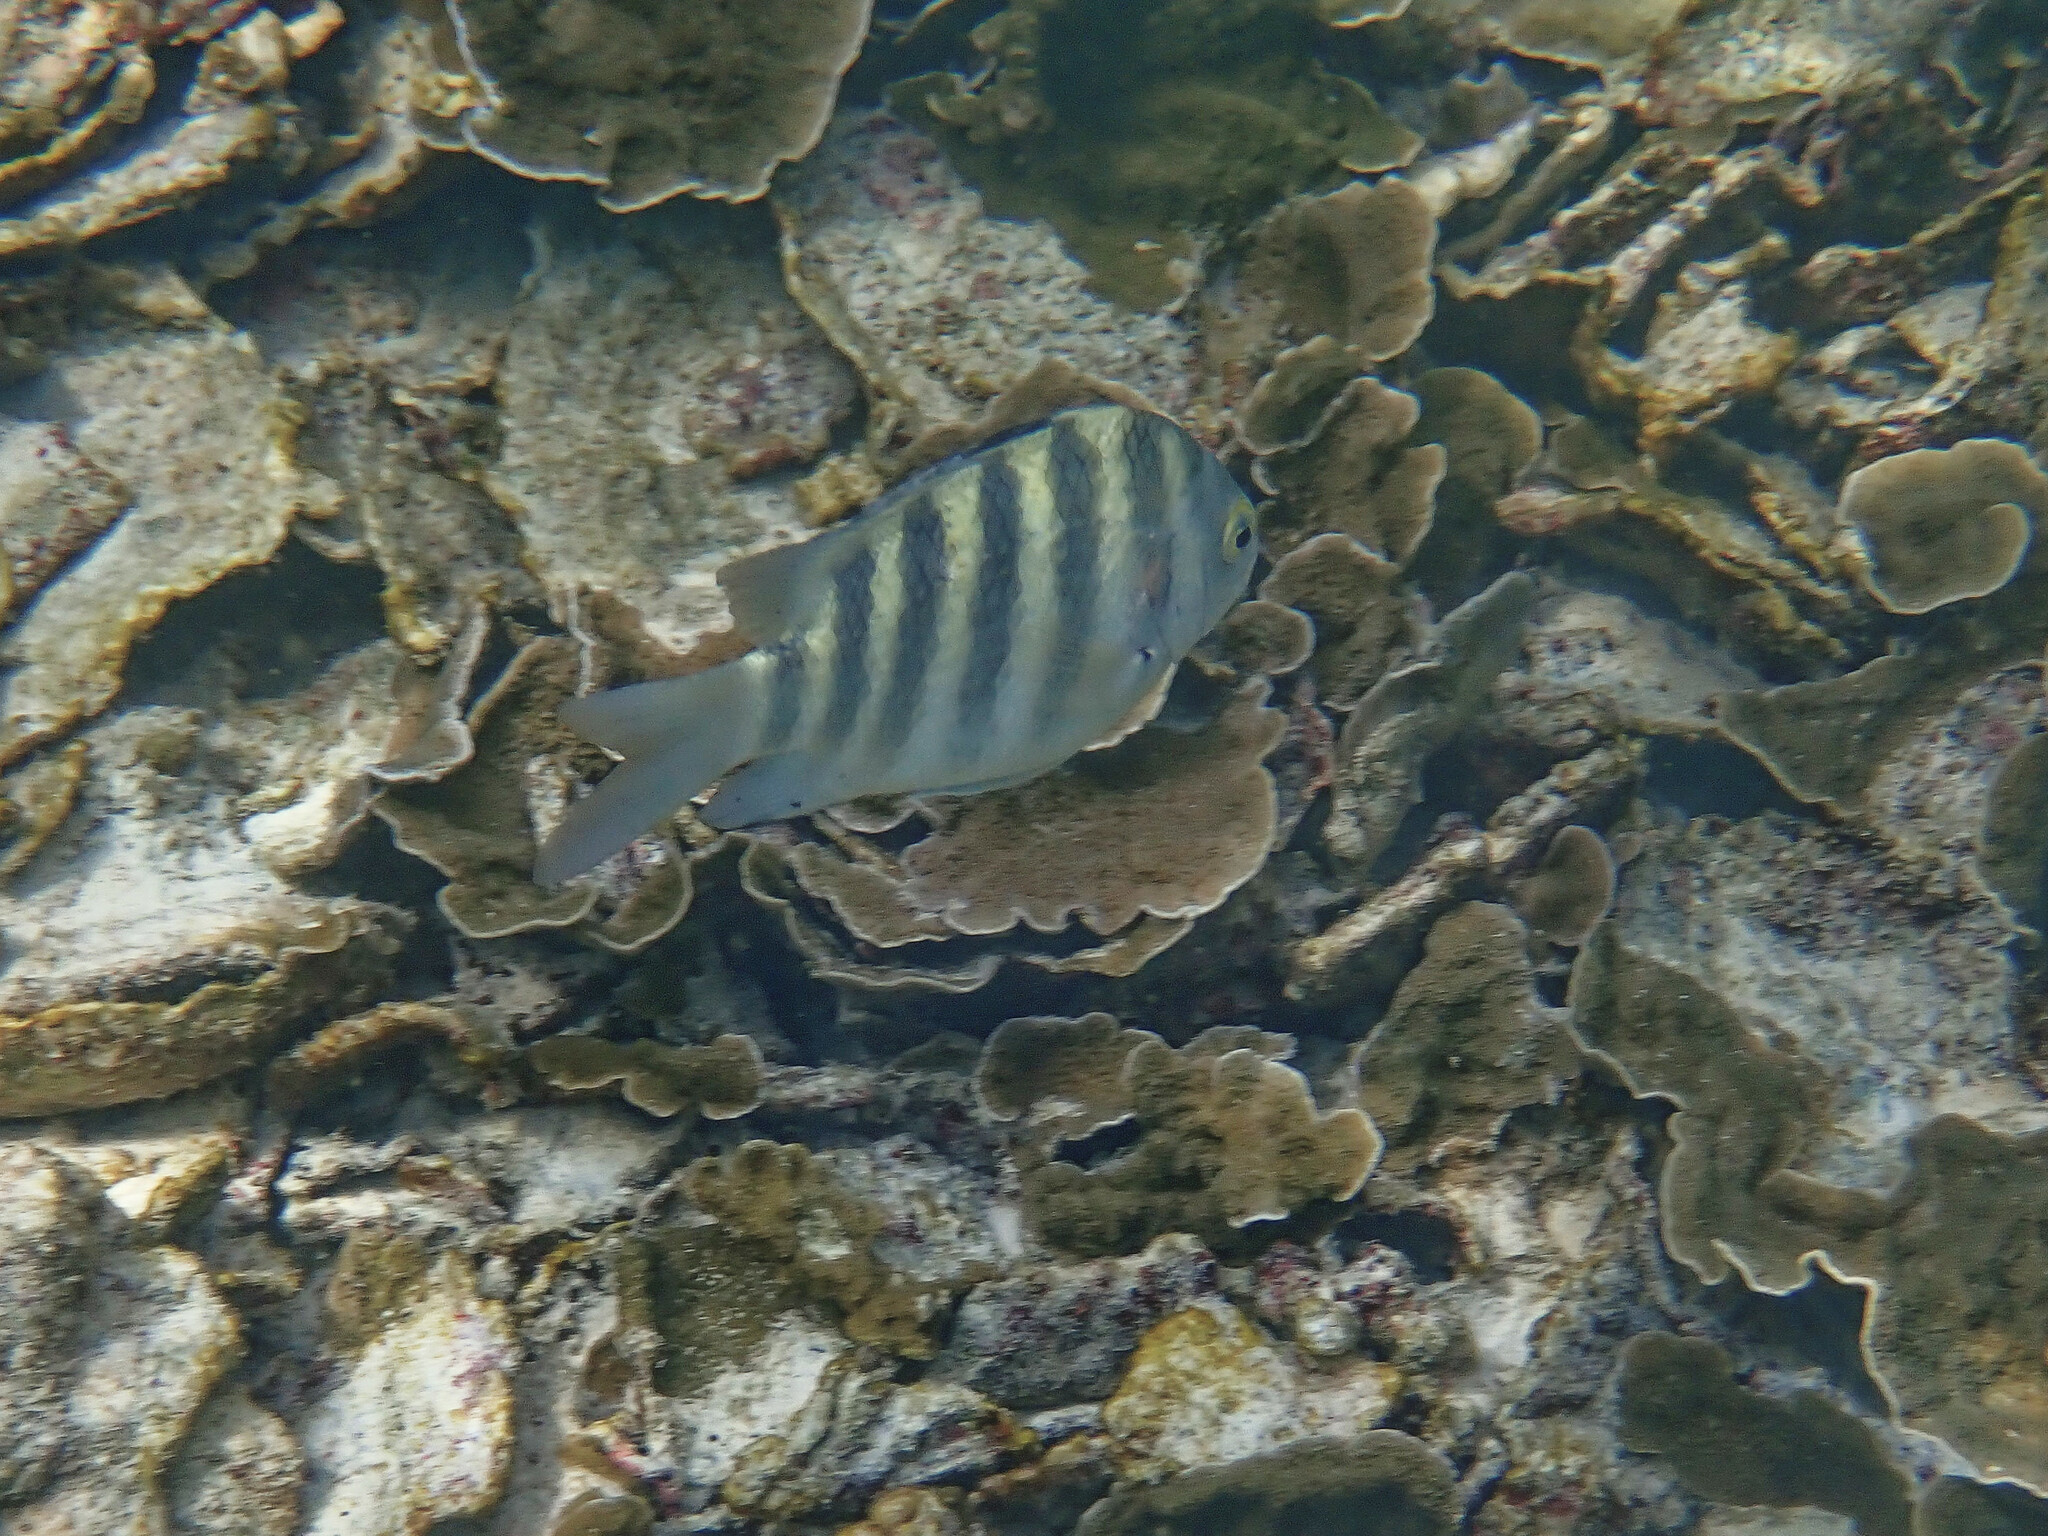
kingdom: Animalia
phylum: Chordata
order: Perciformes
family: Pomacentridae
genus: Abudefduf
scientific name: Abudefduf septemfasciatus
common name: Banded sergeant
